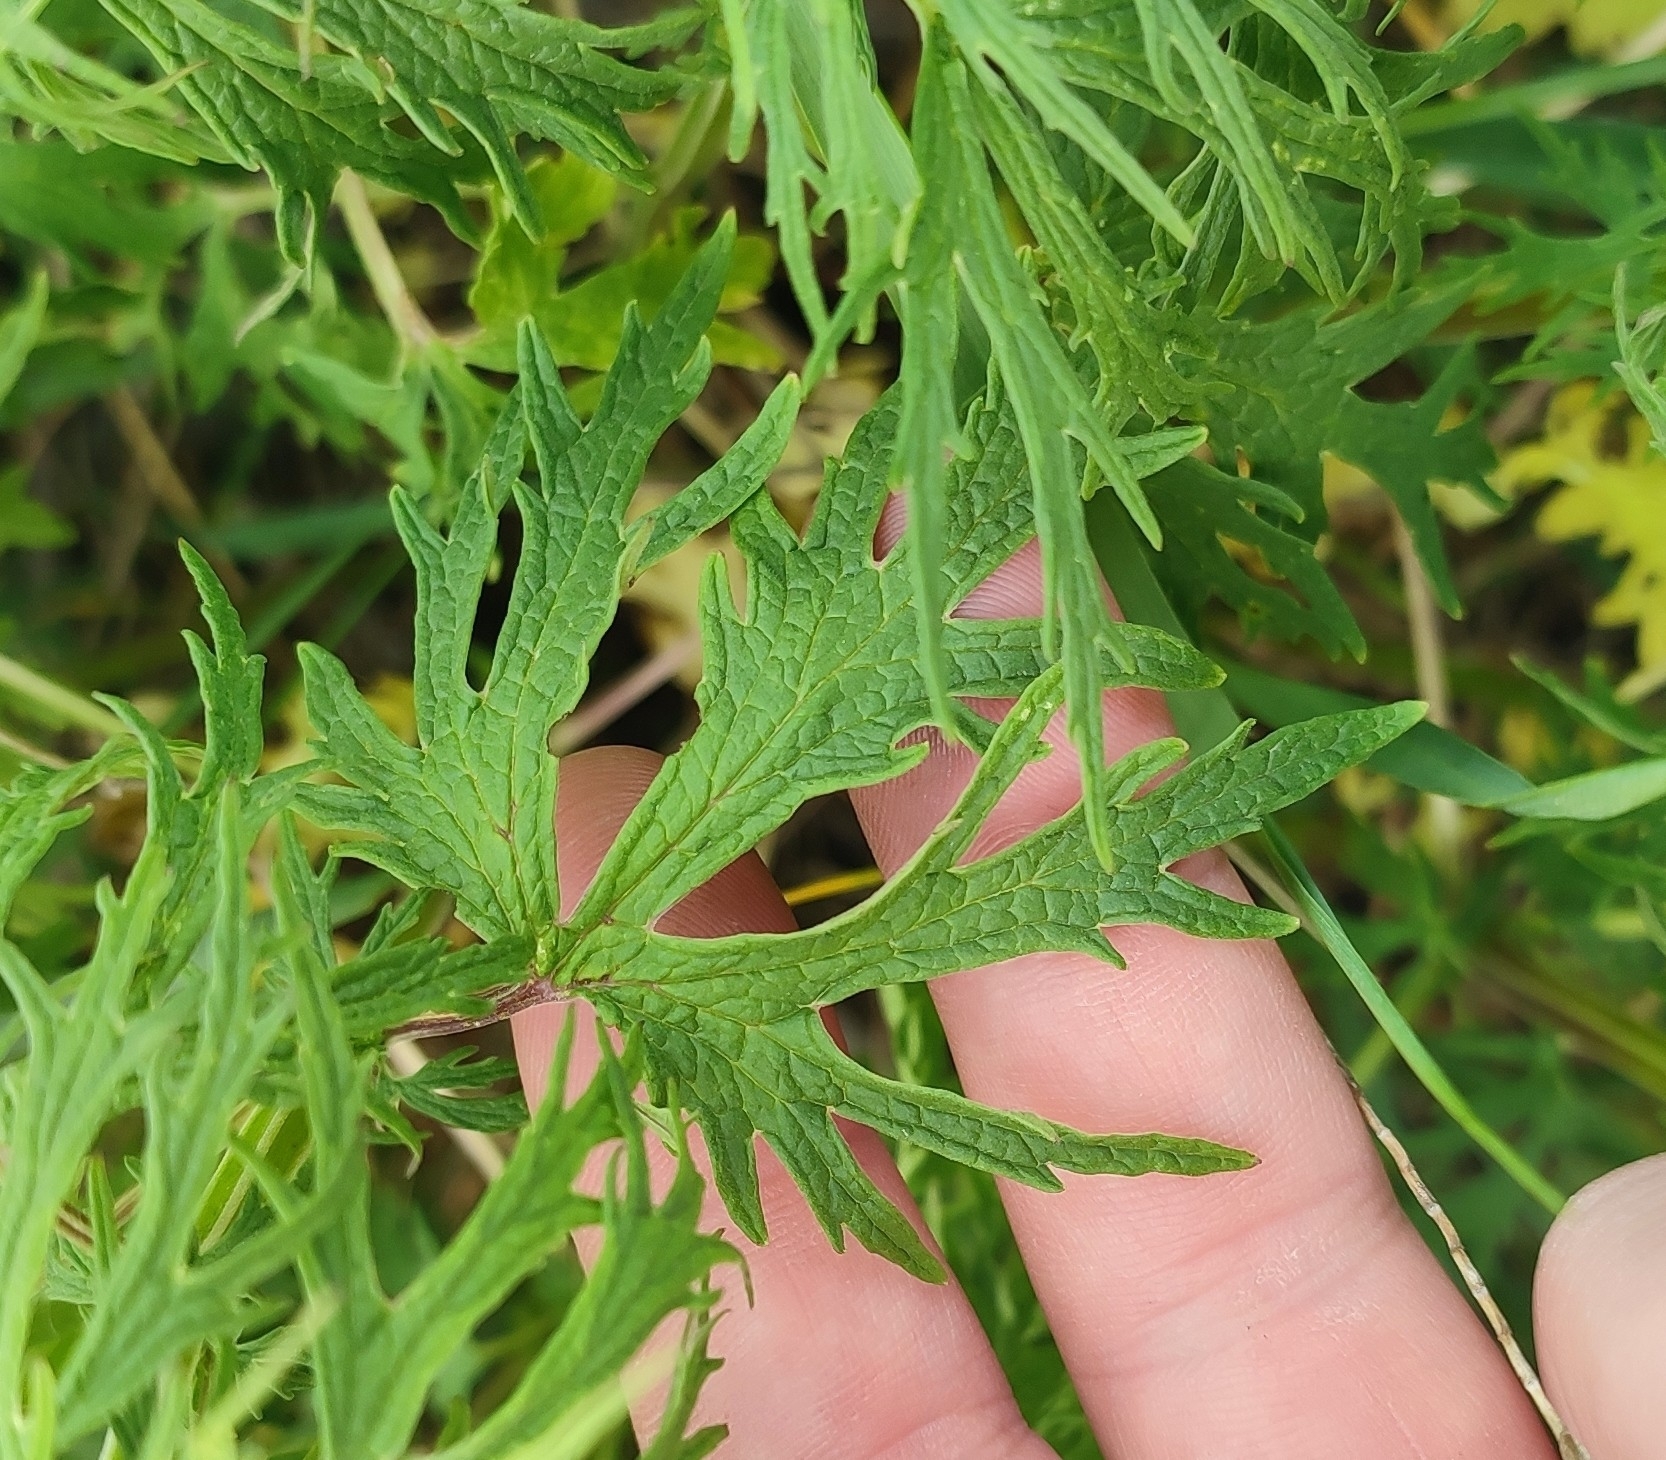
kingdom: Plantae
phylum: Tracheophyta
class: Magnoliopsida
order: Lamiales
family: Lamiaceae
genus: Leonurus
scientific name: Leonurus glaucescens
